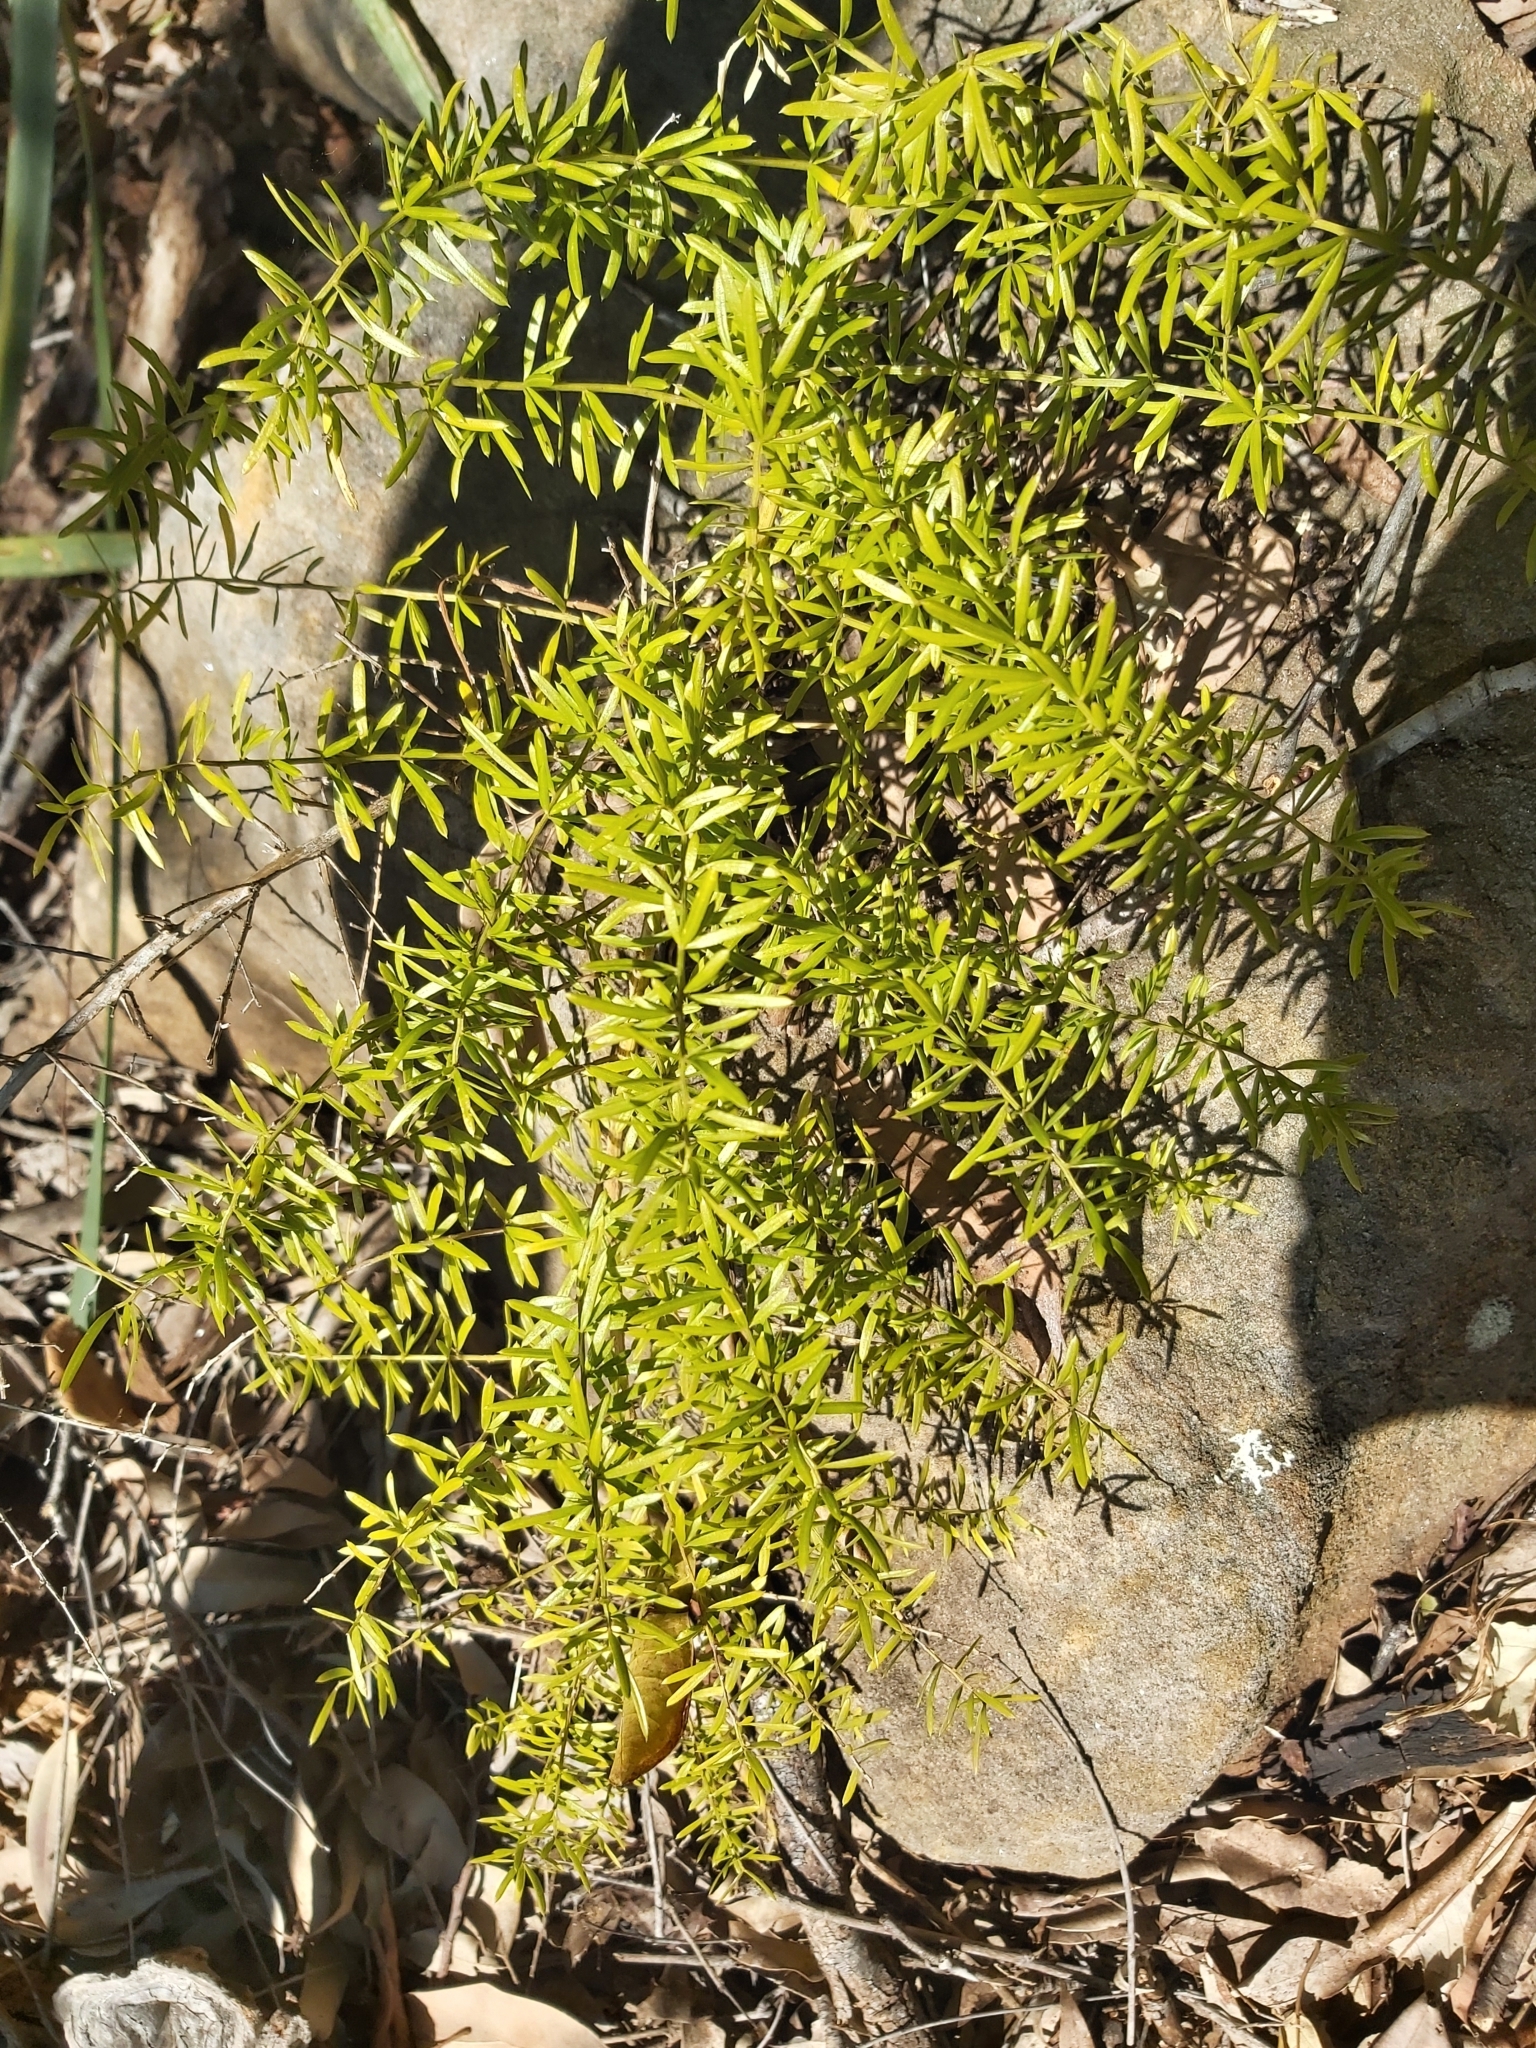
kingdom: Plantae
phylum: Tracheophyta
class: Liliopsida
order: Asparagales
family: Asparagaceae
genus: Asparagus
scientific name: Asparagus aethiopicus
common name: Sprenger's asparagus fern
